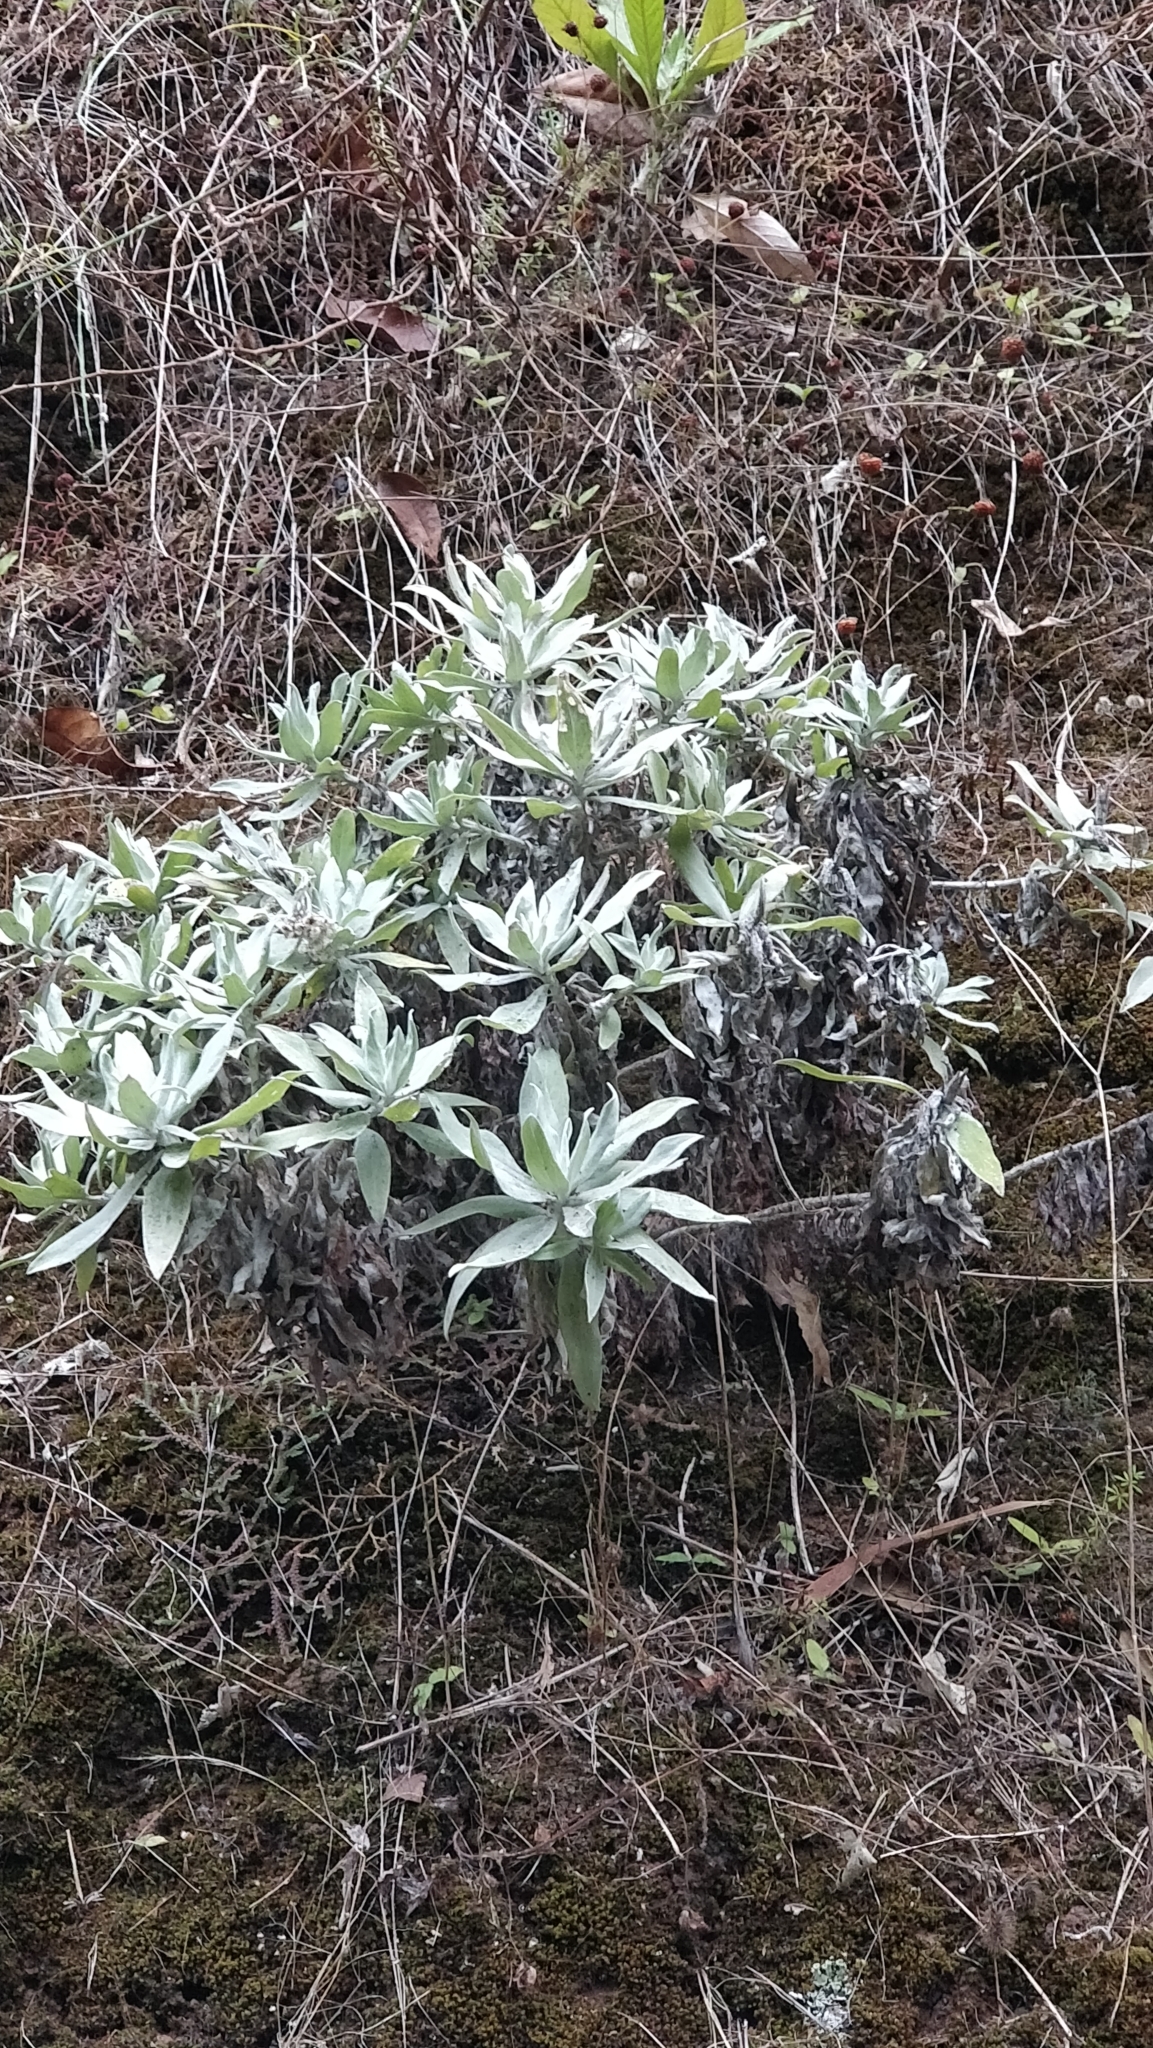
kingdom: Plantae
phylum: Tracheophyta
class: Magnoliopsida
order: Asterales
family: Asteraceae
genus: Helichrysum
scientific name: Helichrysum melaleucum
